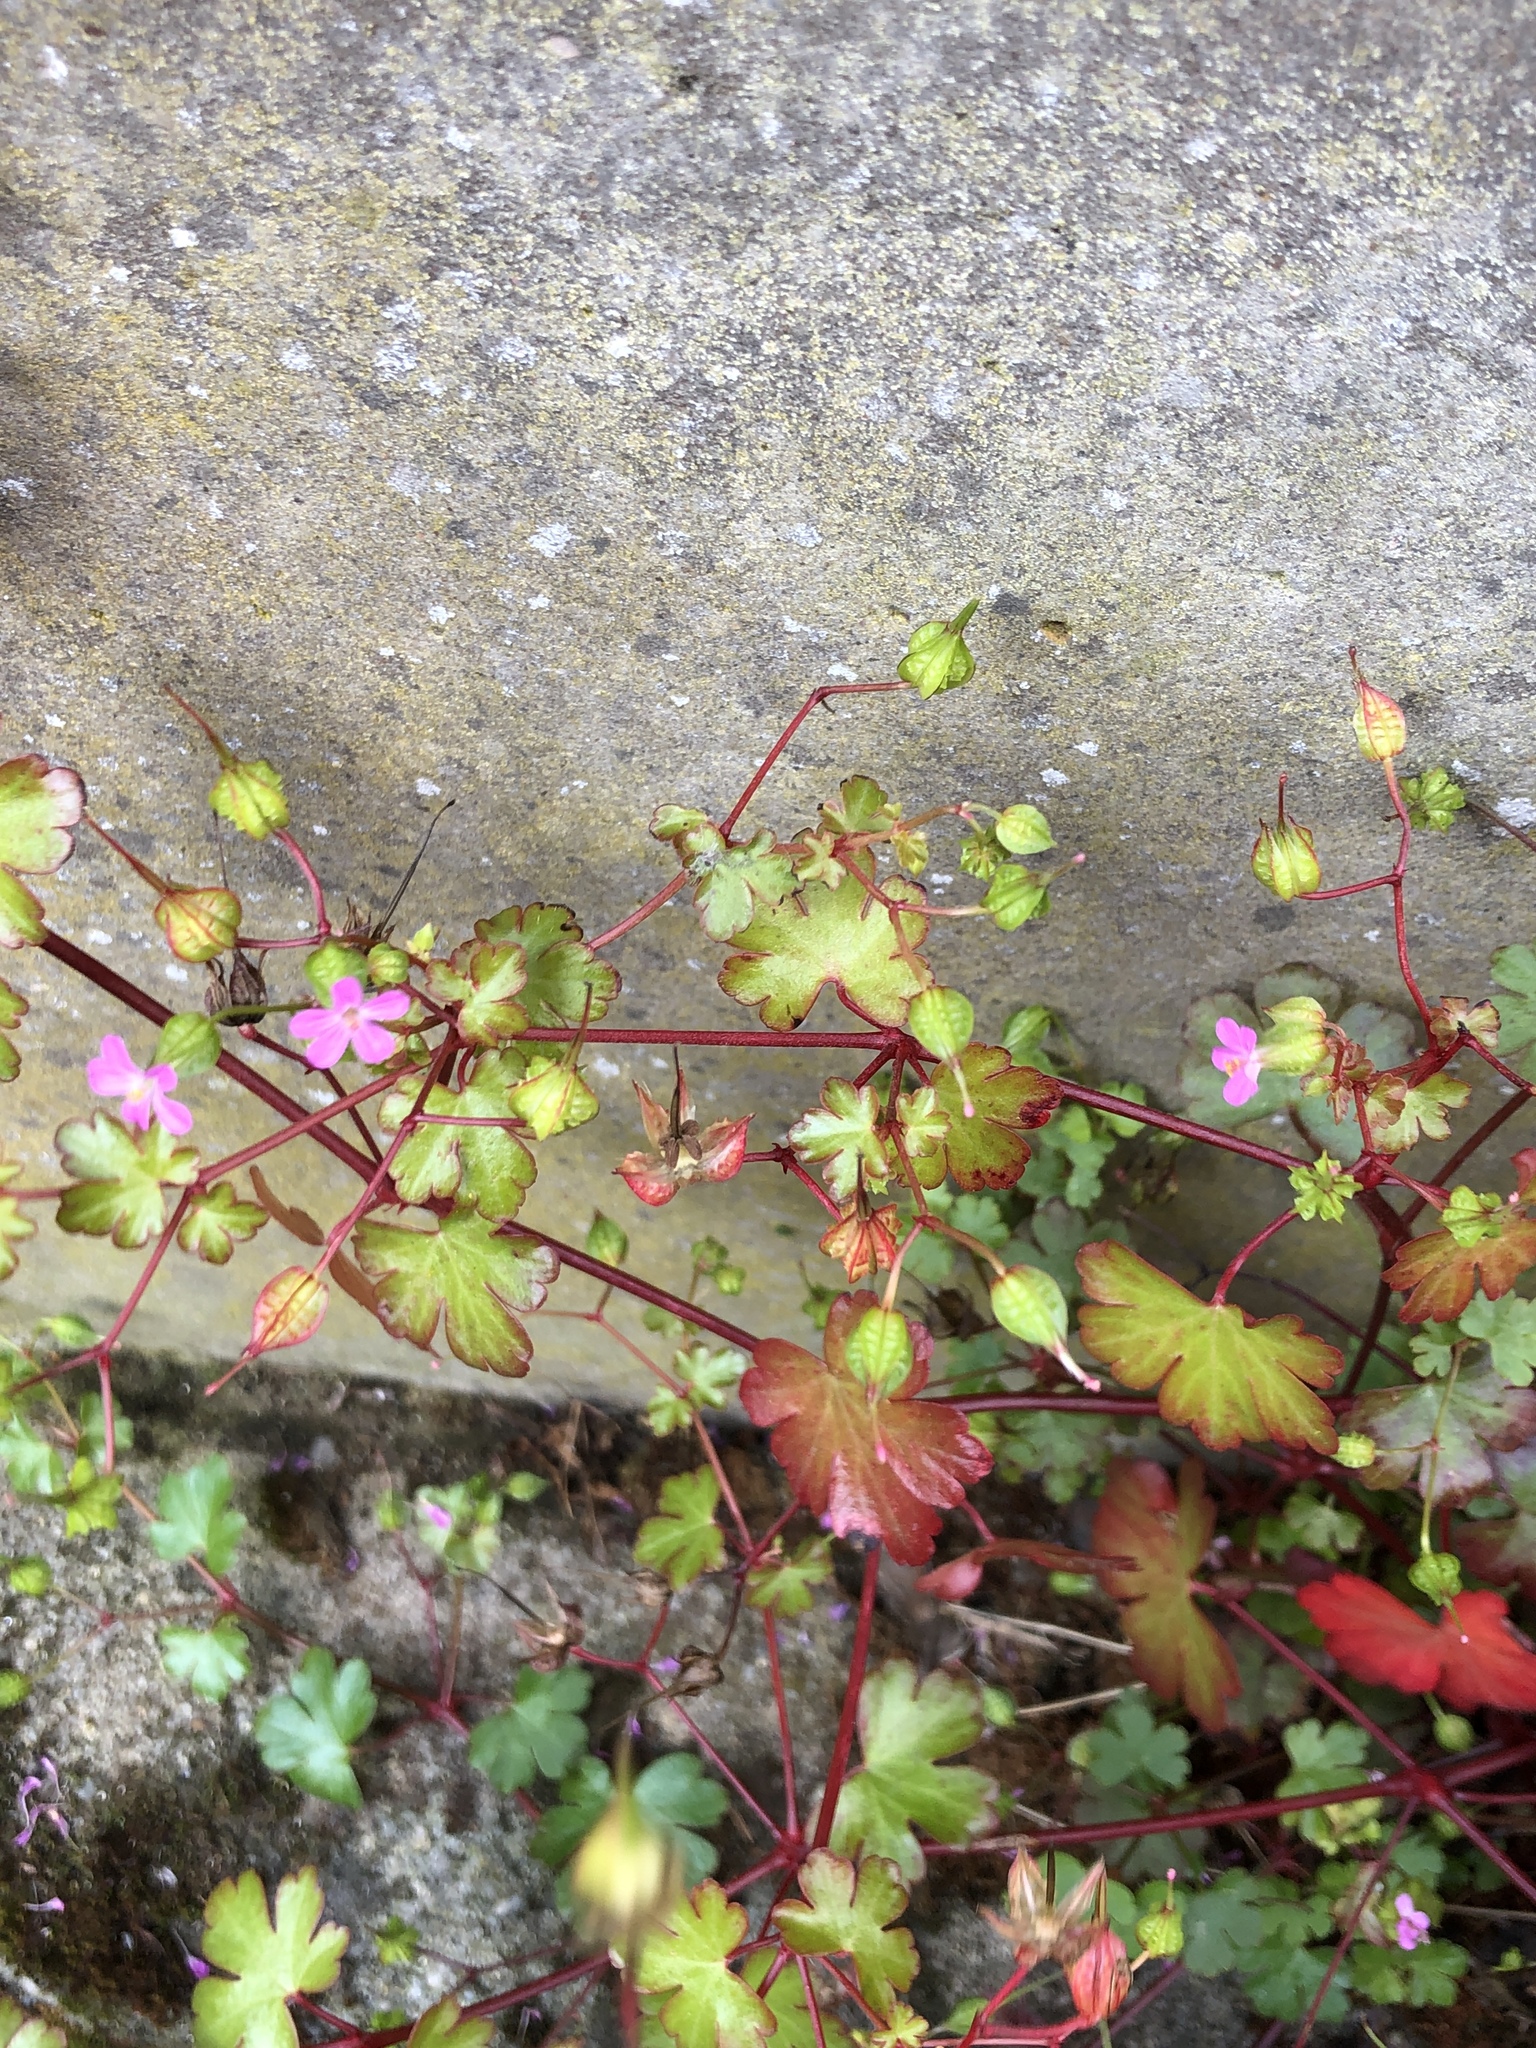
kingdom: Plantae
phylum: Tracheophyta
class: Magnoliopsida
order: Geraniales
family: Geraniaceae
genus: Geranium
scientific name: Geranium lucidum
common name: Shining crane's-bill
